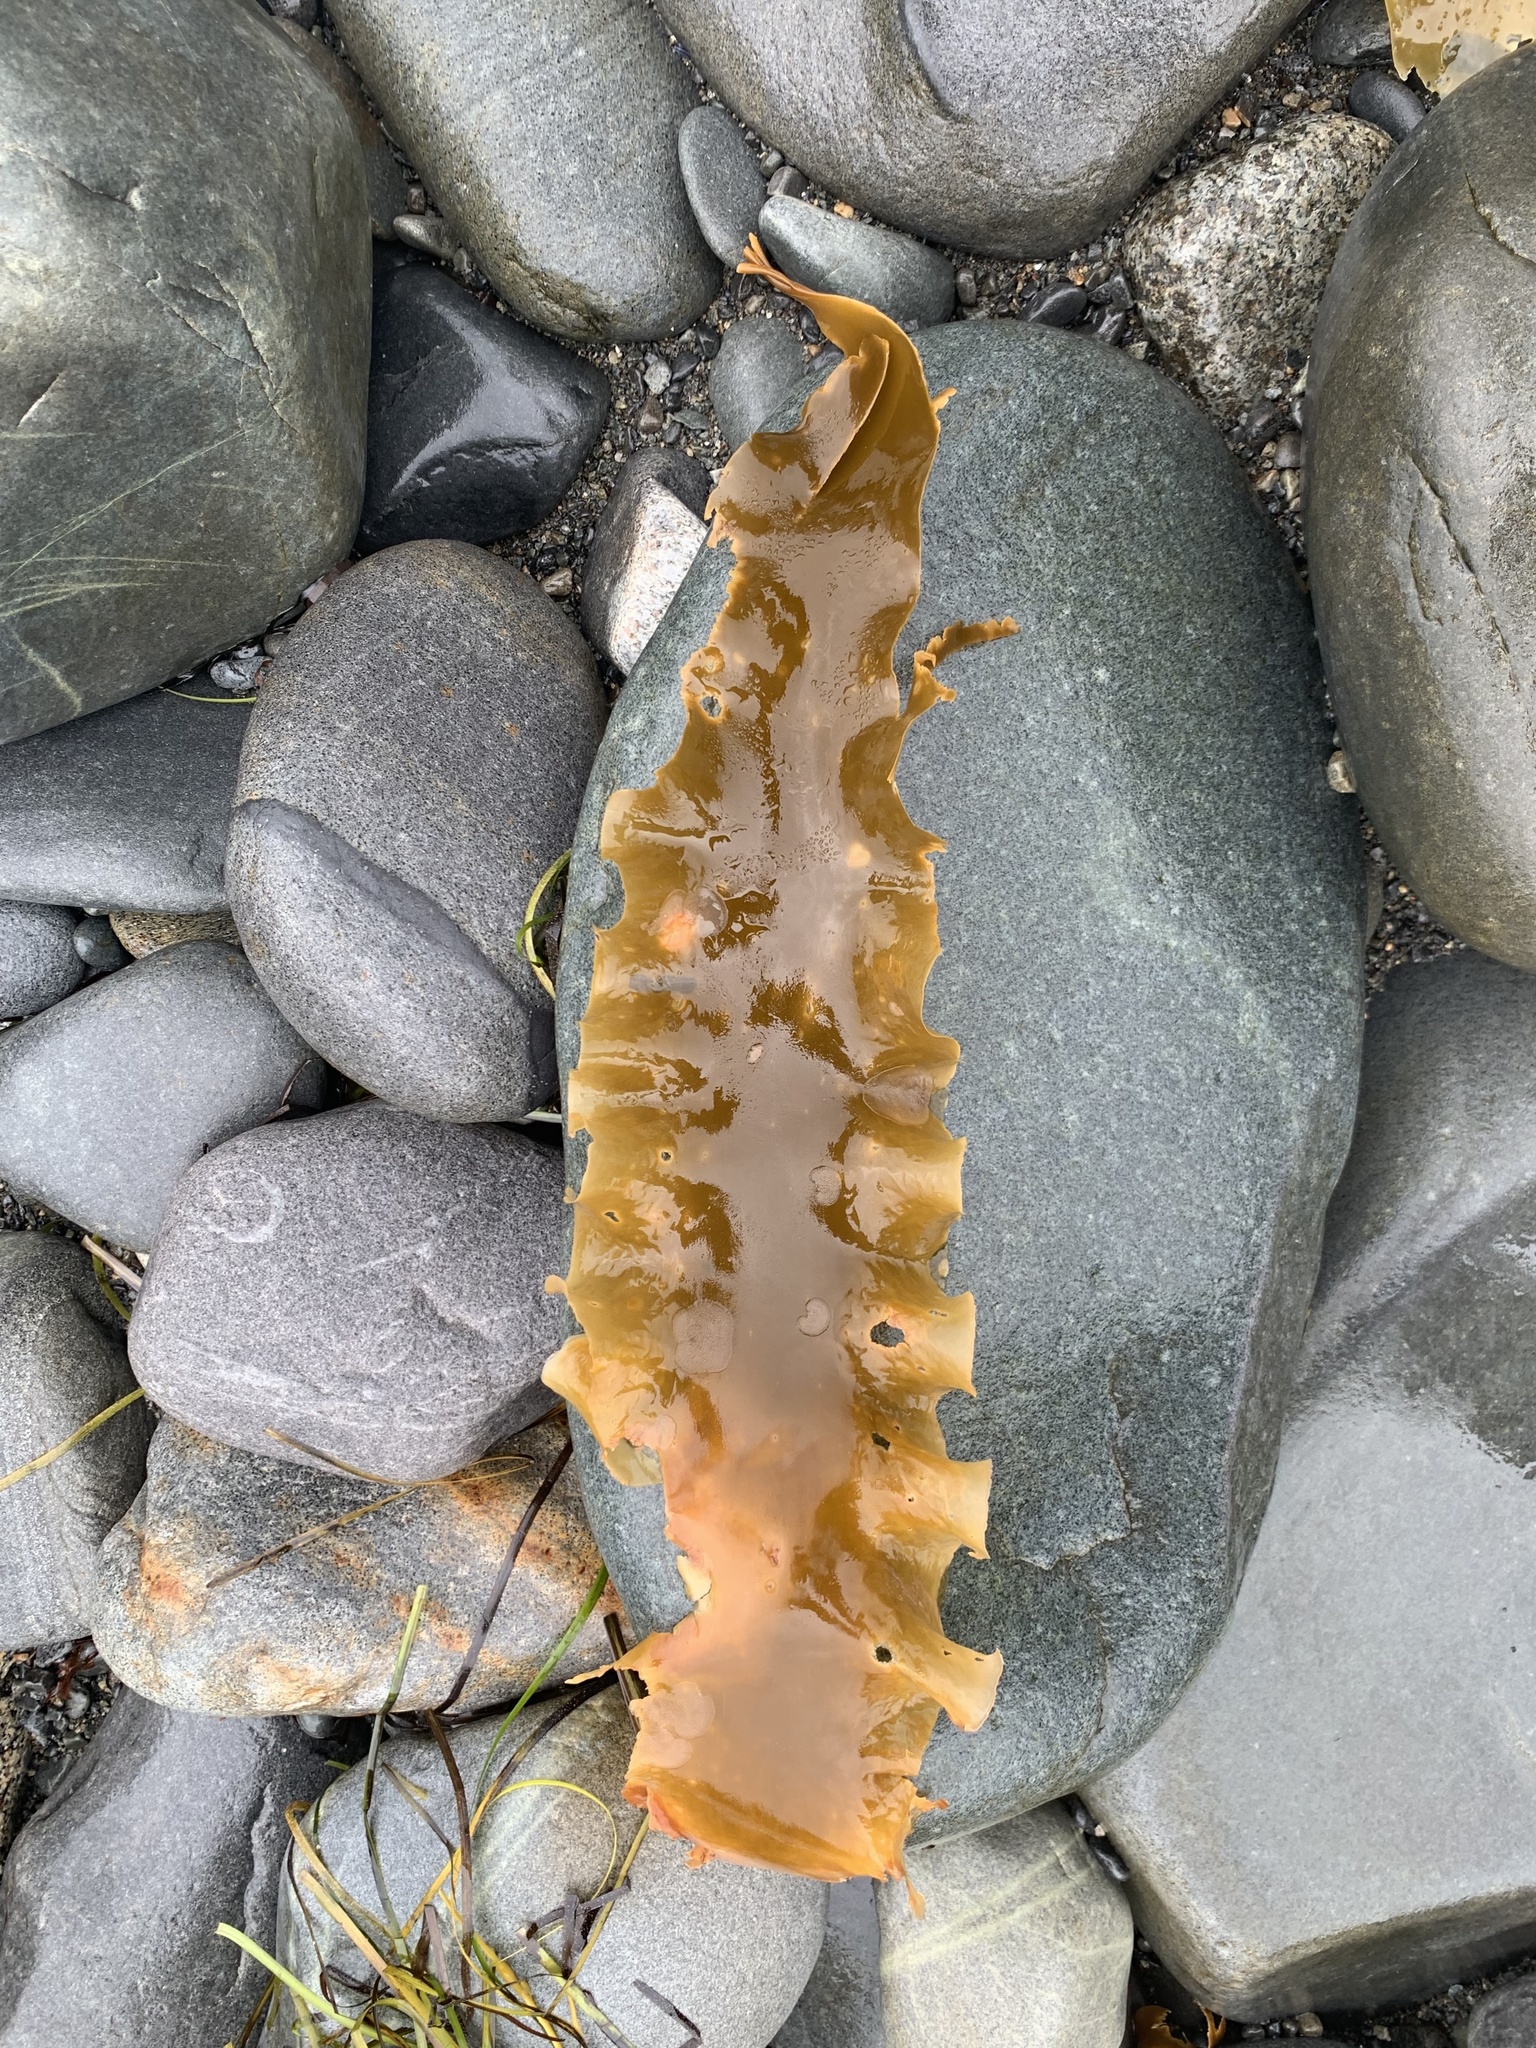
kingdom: Chromista
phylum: Ochrophyta
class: Phaeophyceae
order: Laminariales
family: Laminariaceae
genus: Saccharina
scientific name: Saccharina latissima
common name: Poor man's weather glass
